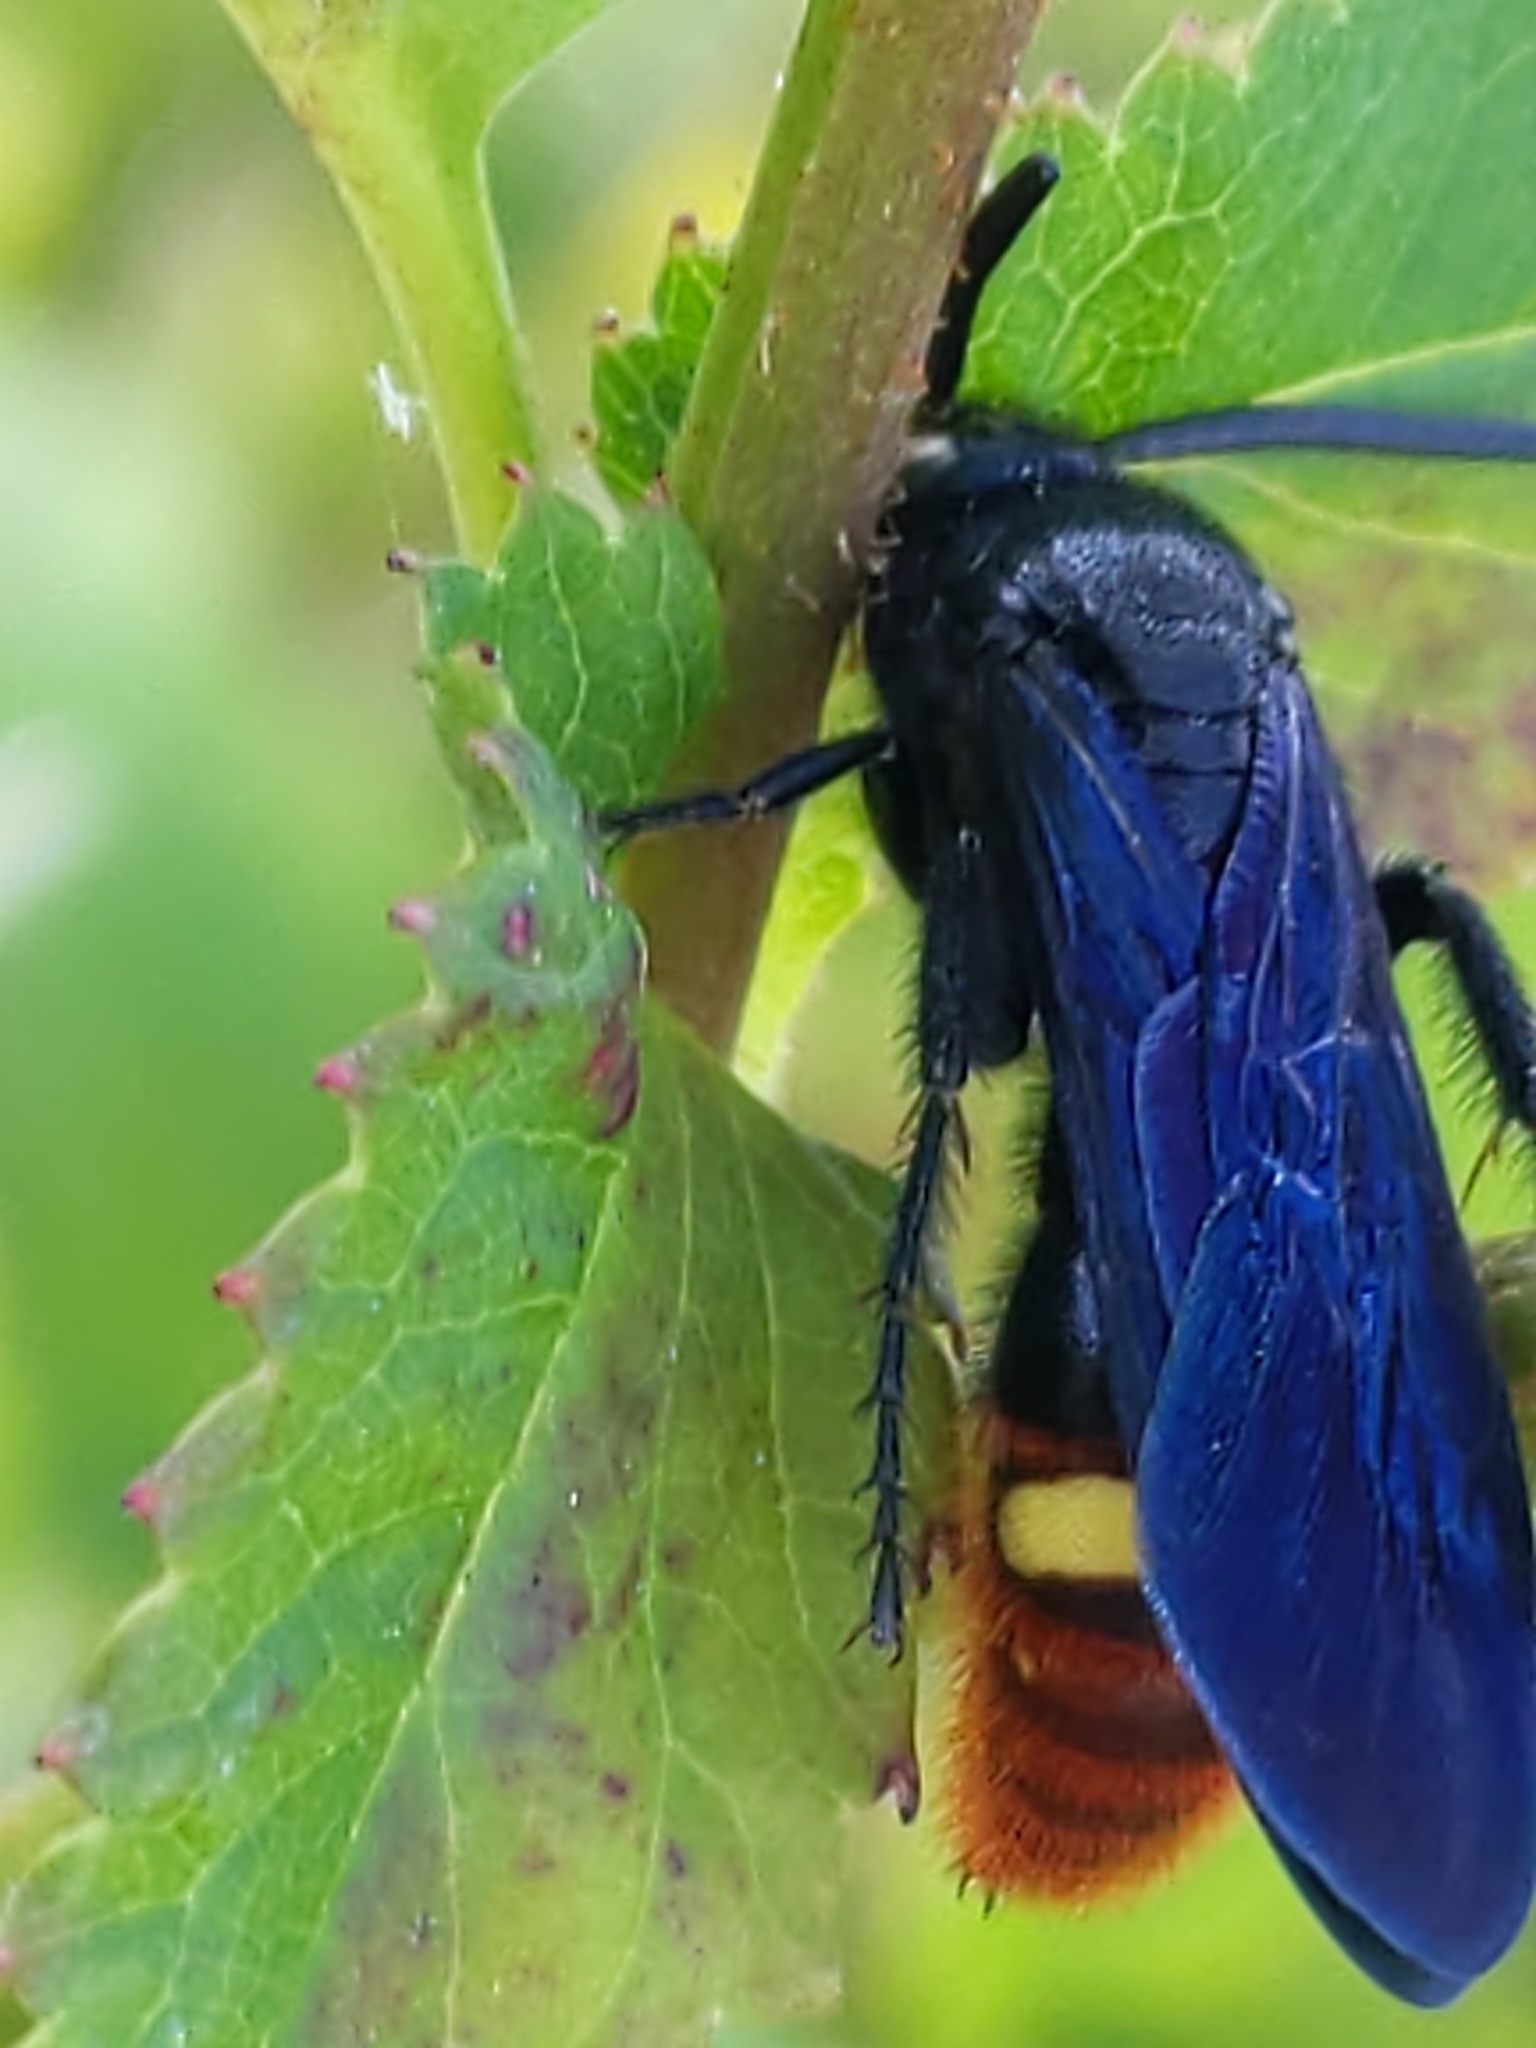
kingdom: Animalia
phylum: Arthropoda
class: Insecta
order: Hymenoptera
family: Scoliidae
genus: Scolia
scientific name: Scolia dubia
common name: Blue-winged scoliid wasp
